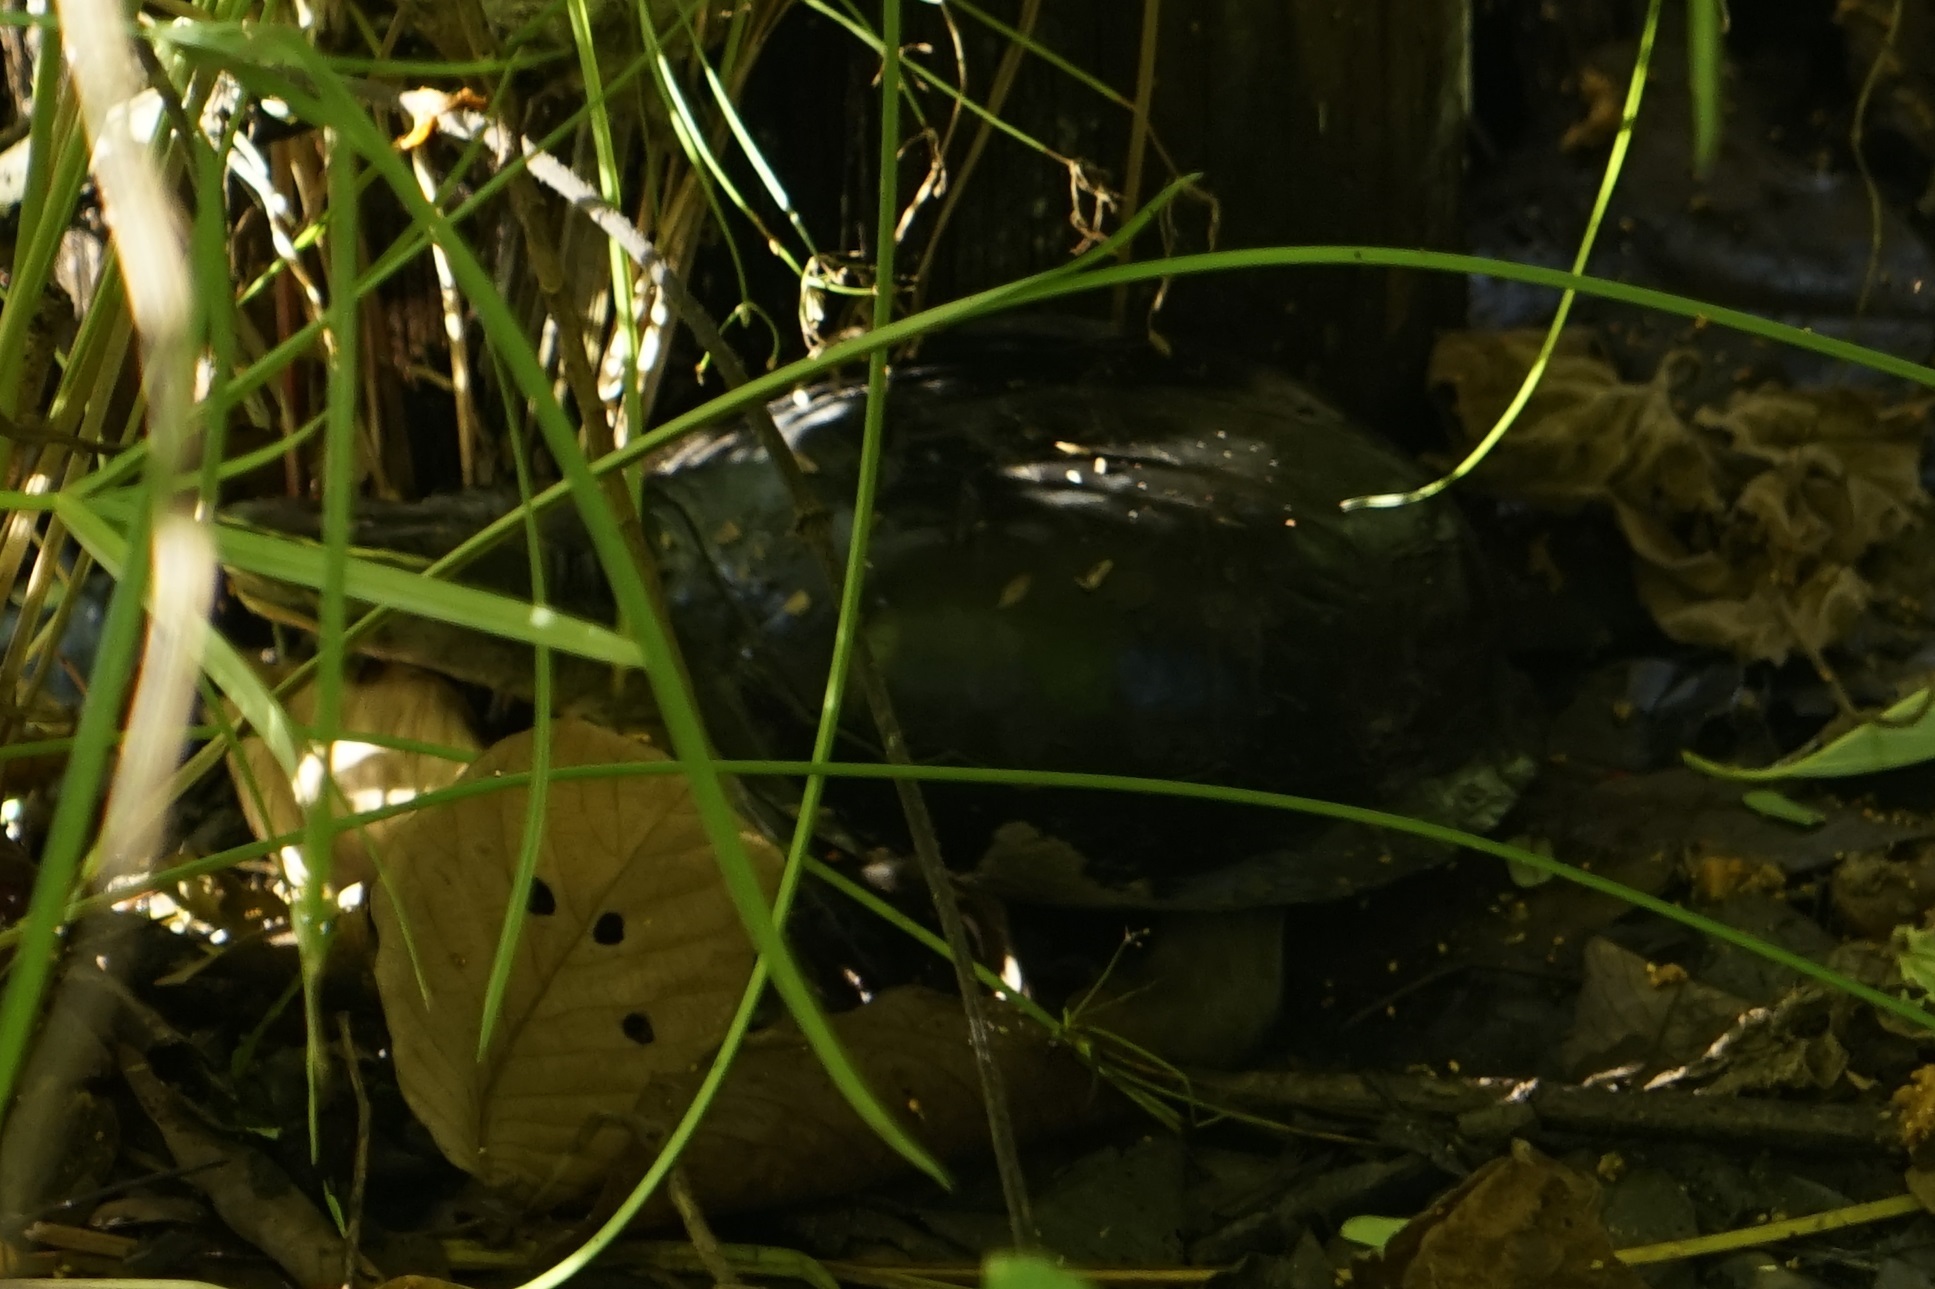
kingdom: Animalia
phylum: Chordata
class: Testudines
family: Geoemydidae
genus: Cuora
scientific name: Cuora
